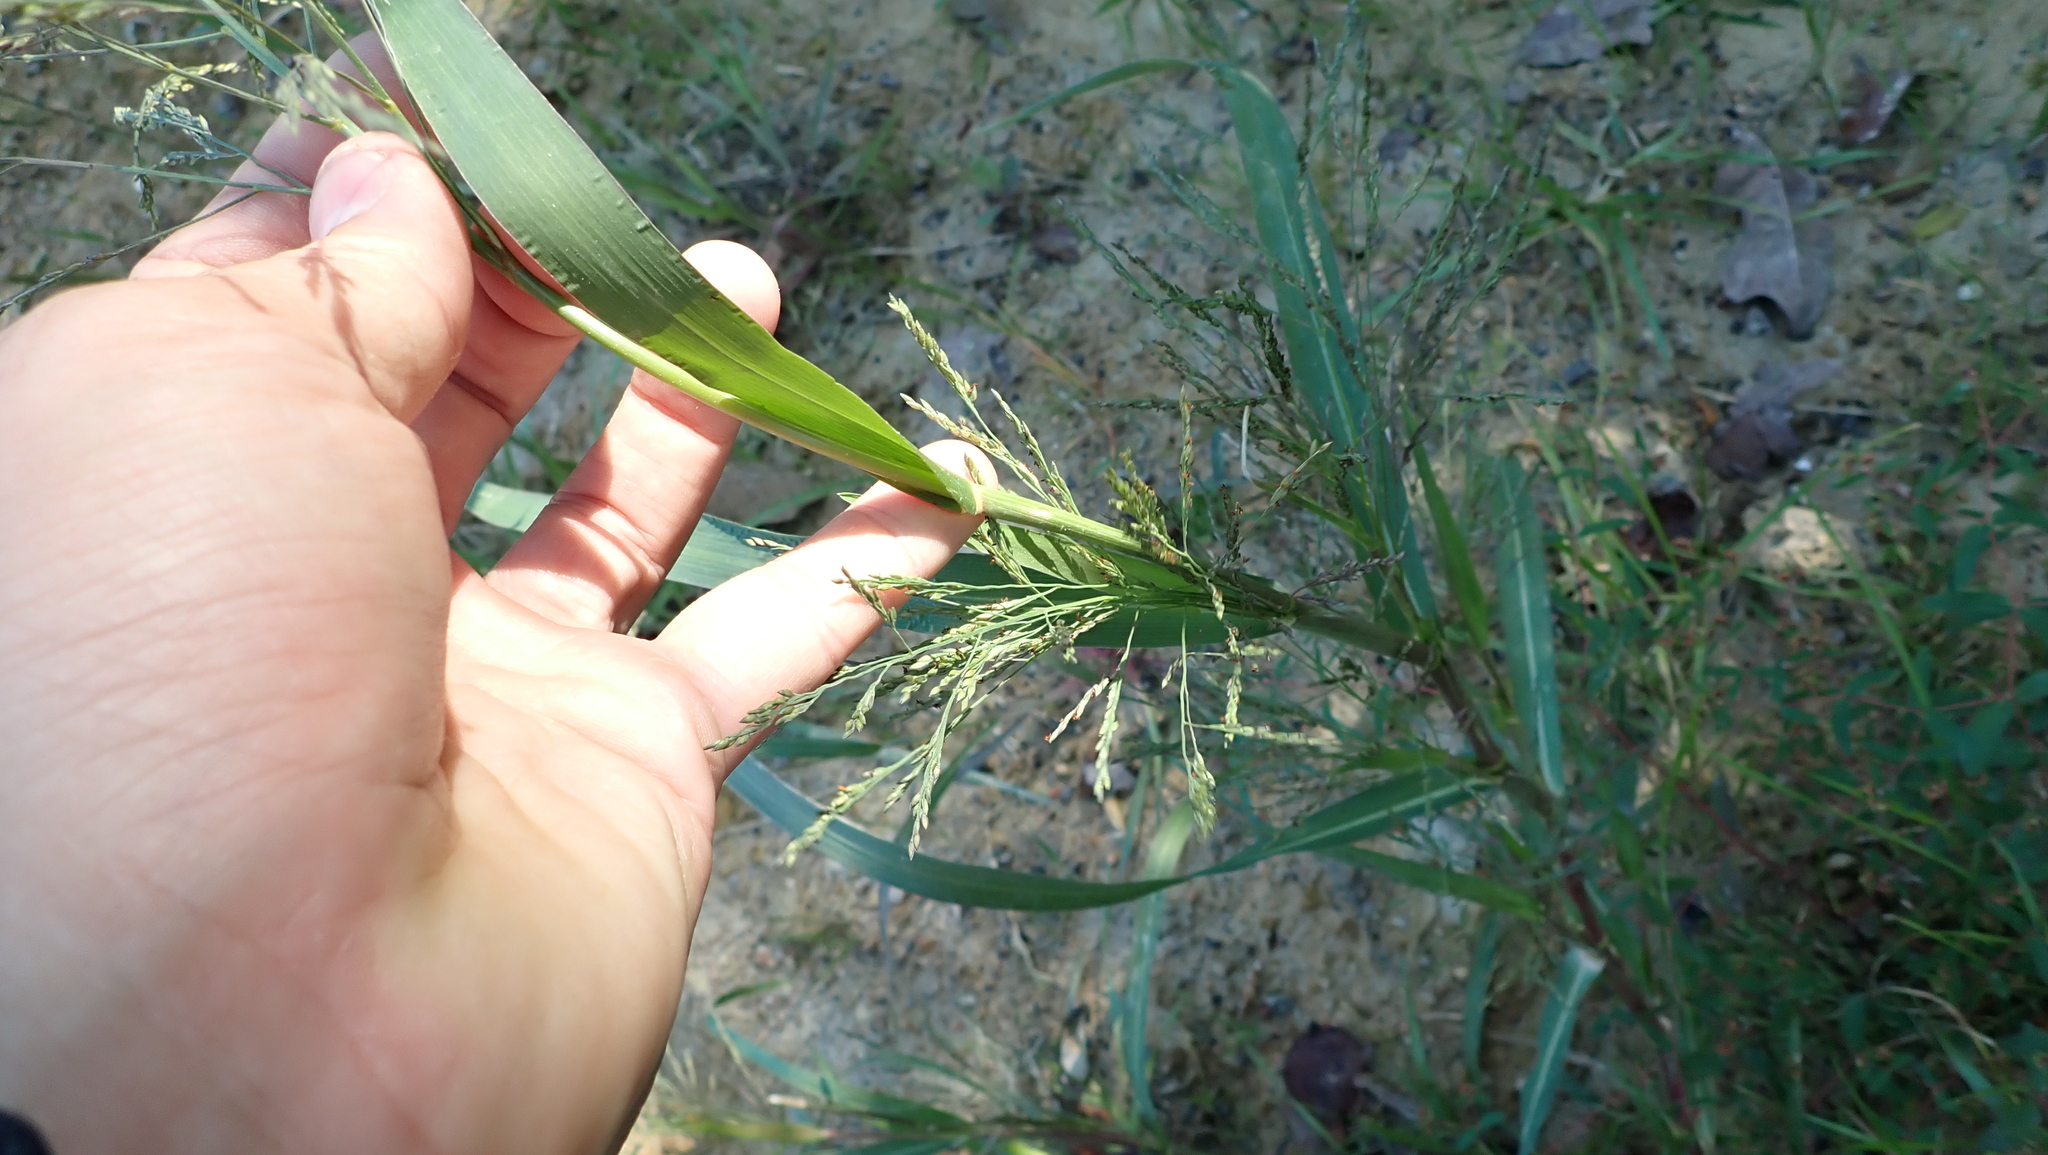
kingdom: Plantae
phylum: Tracheophyta
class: Liliopsida
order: Poales
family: Poaceae
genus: Panicum
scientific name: Panicum dichotomiflorum
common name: Autumn millet
